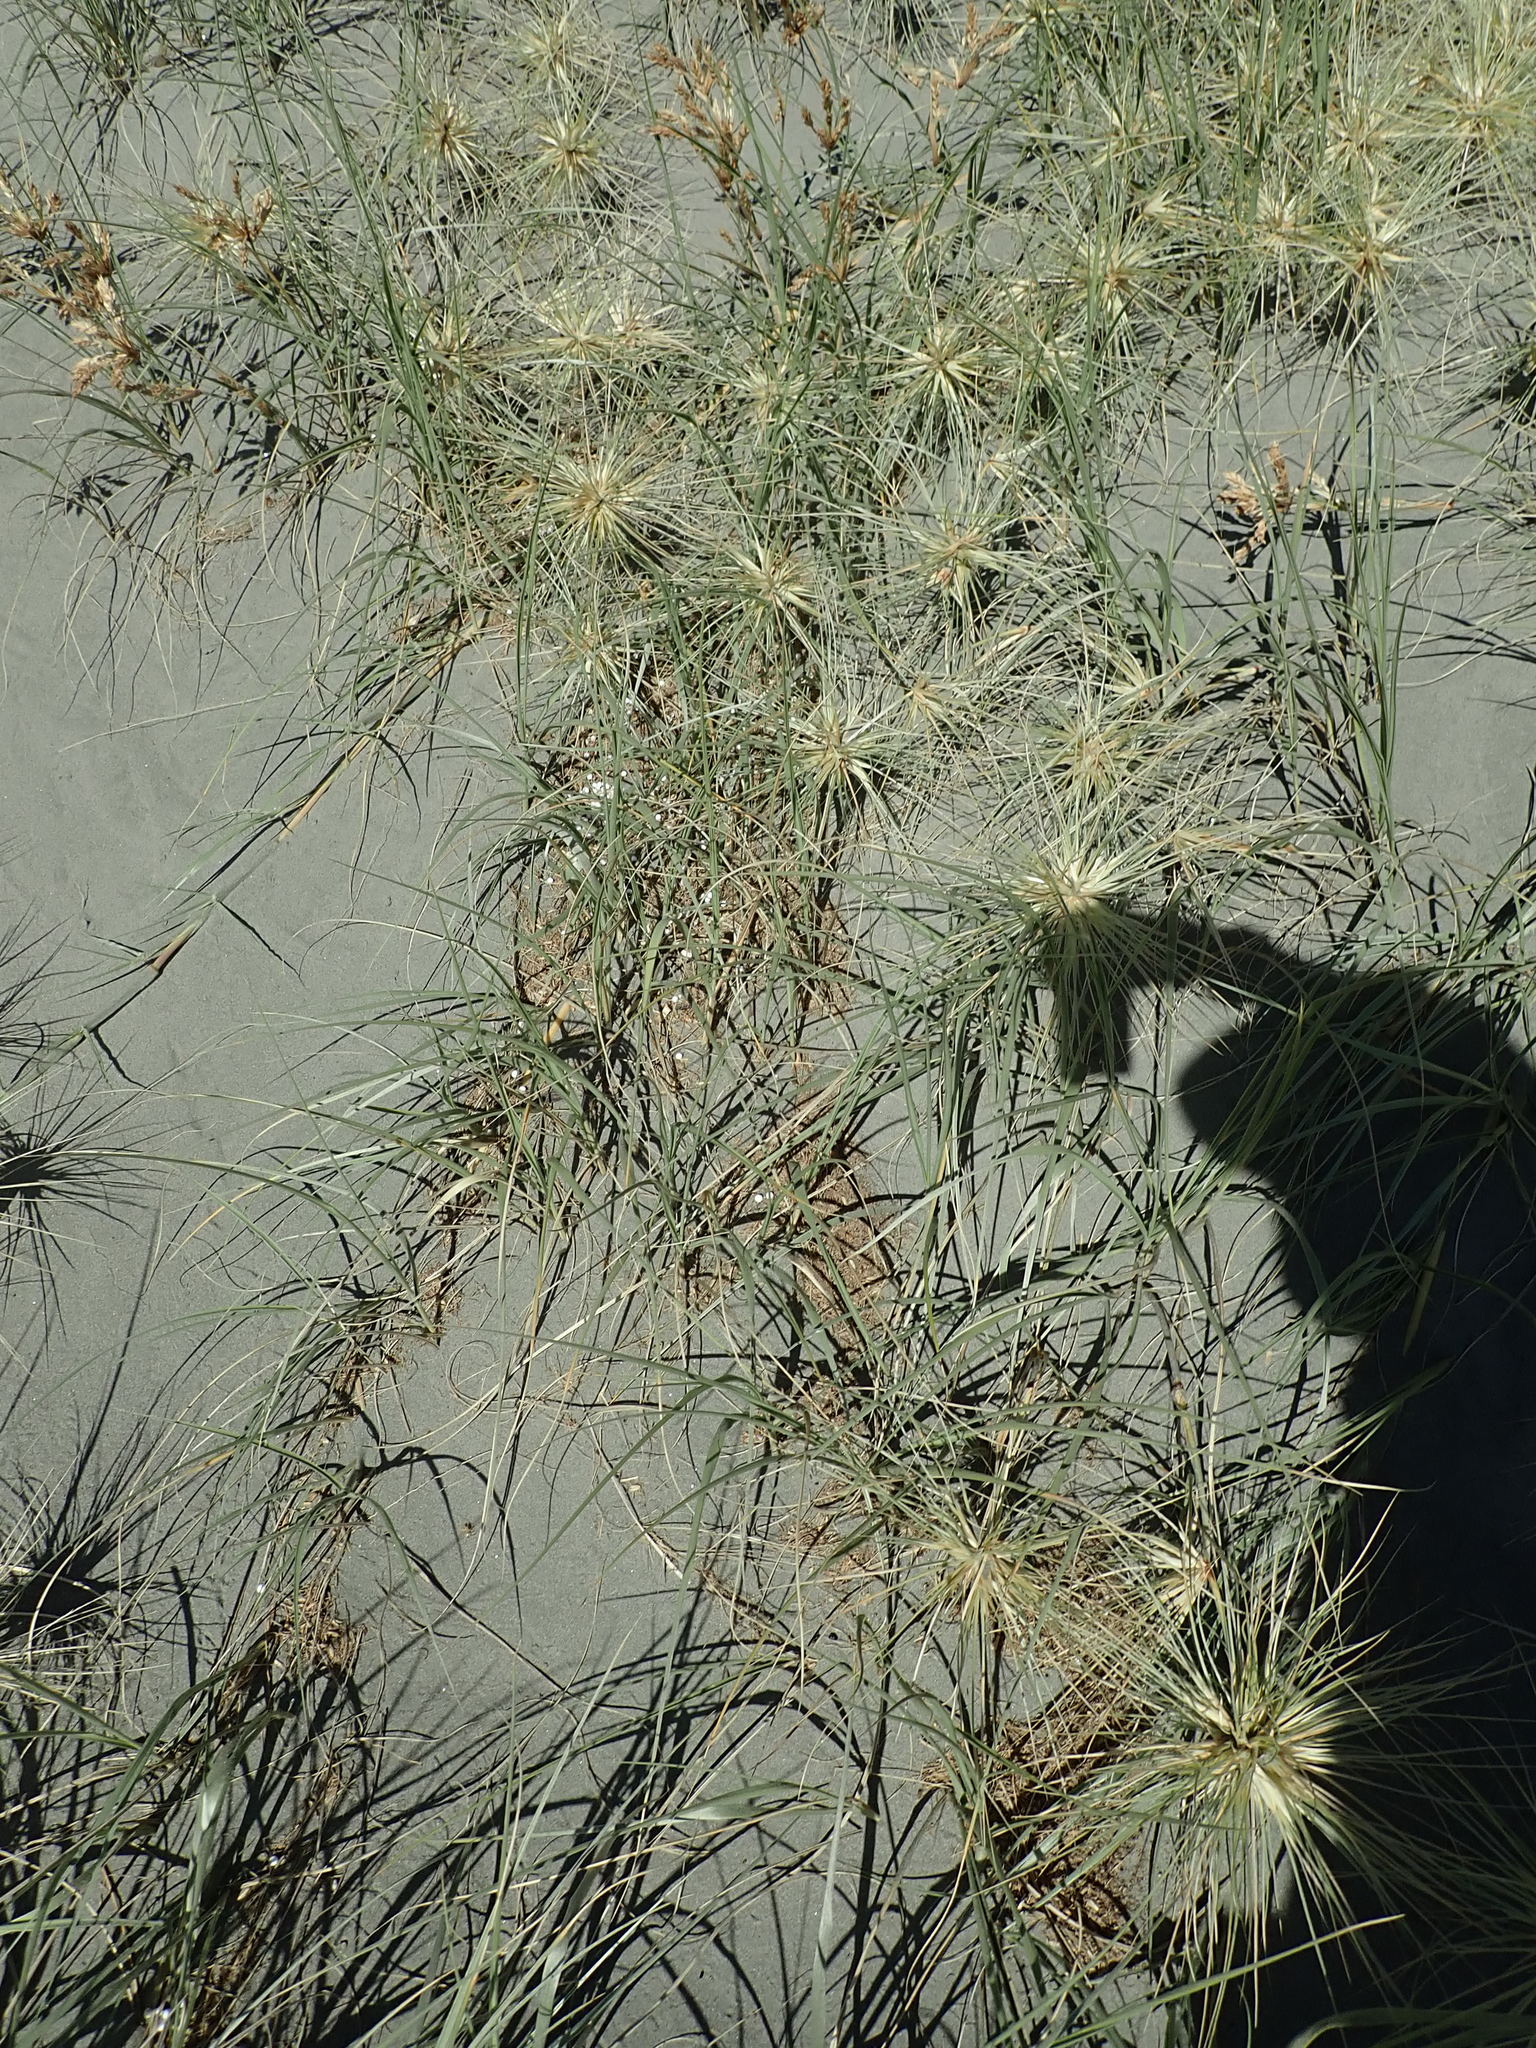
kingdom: Plantae
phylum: Tracheophyta
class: Liliopsida
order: Poales
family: Poaceae
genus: Spinifex
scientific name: Spinifex sericeus
